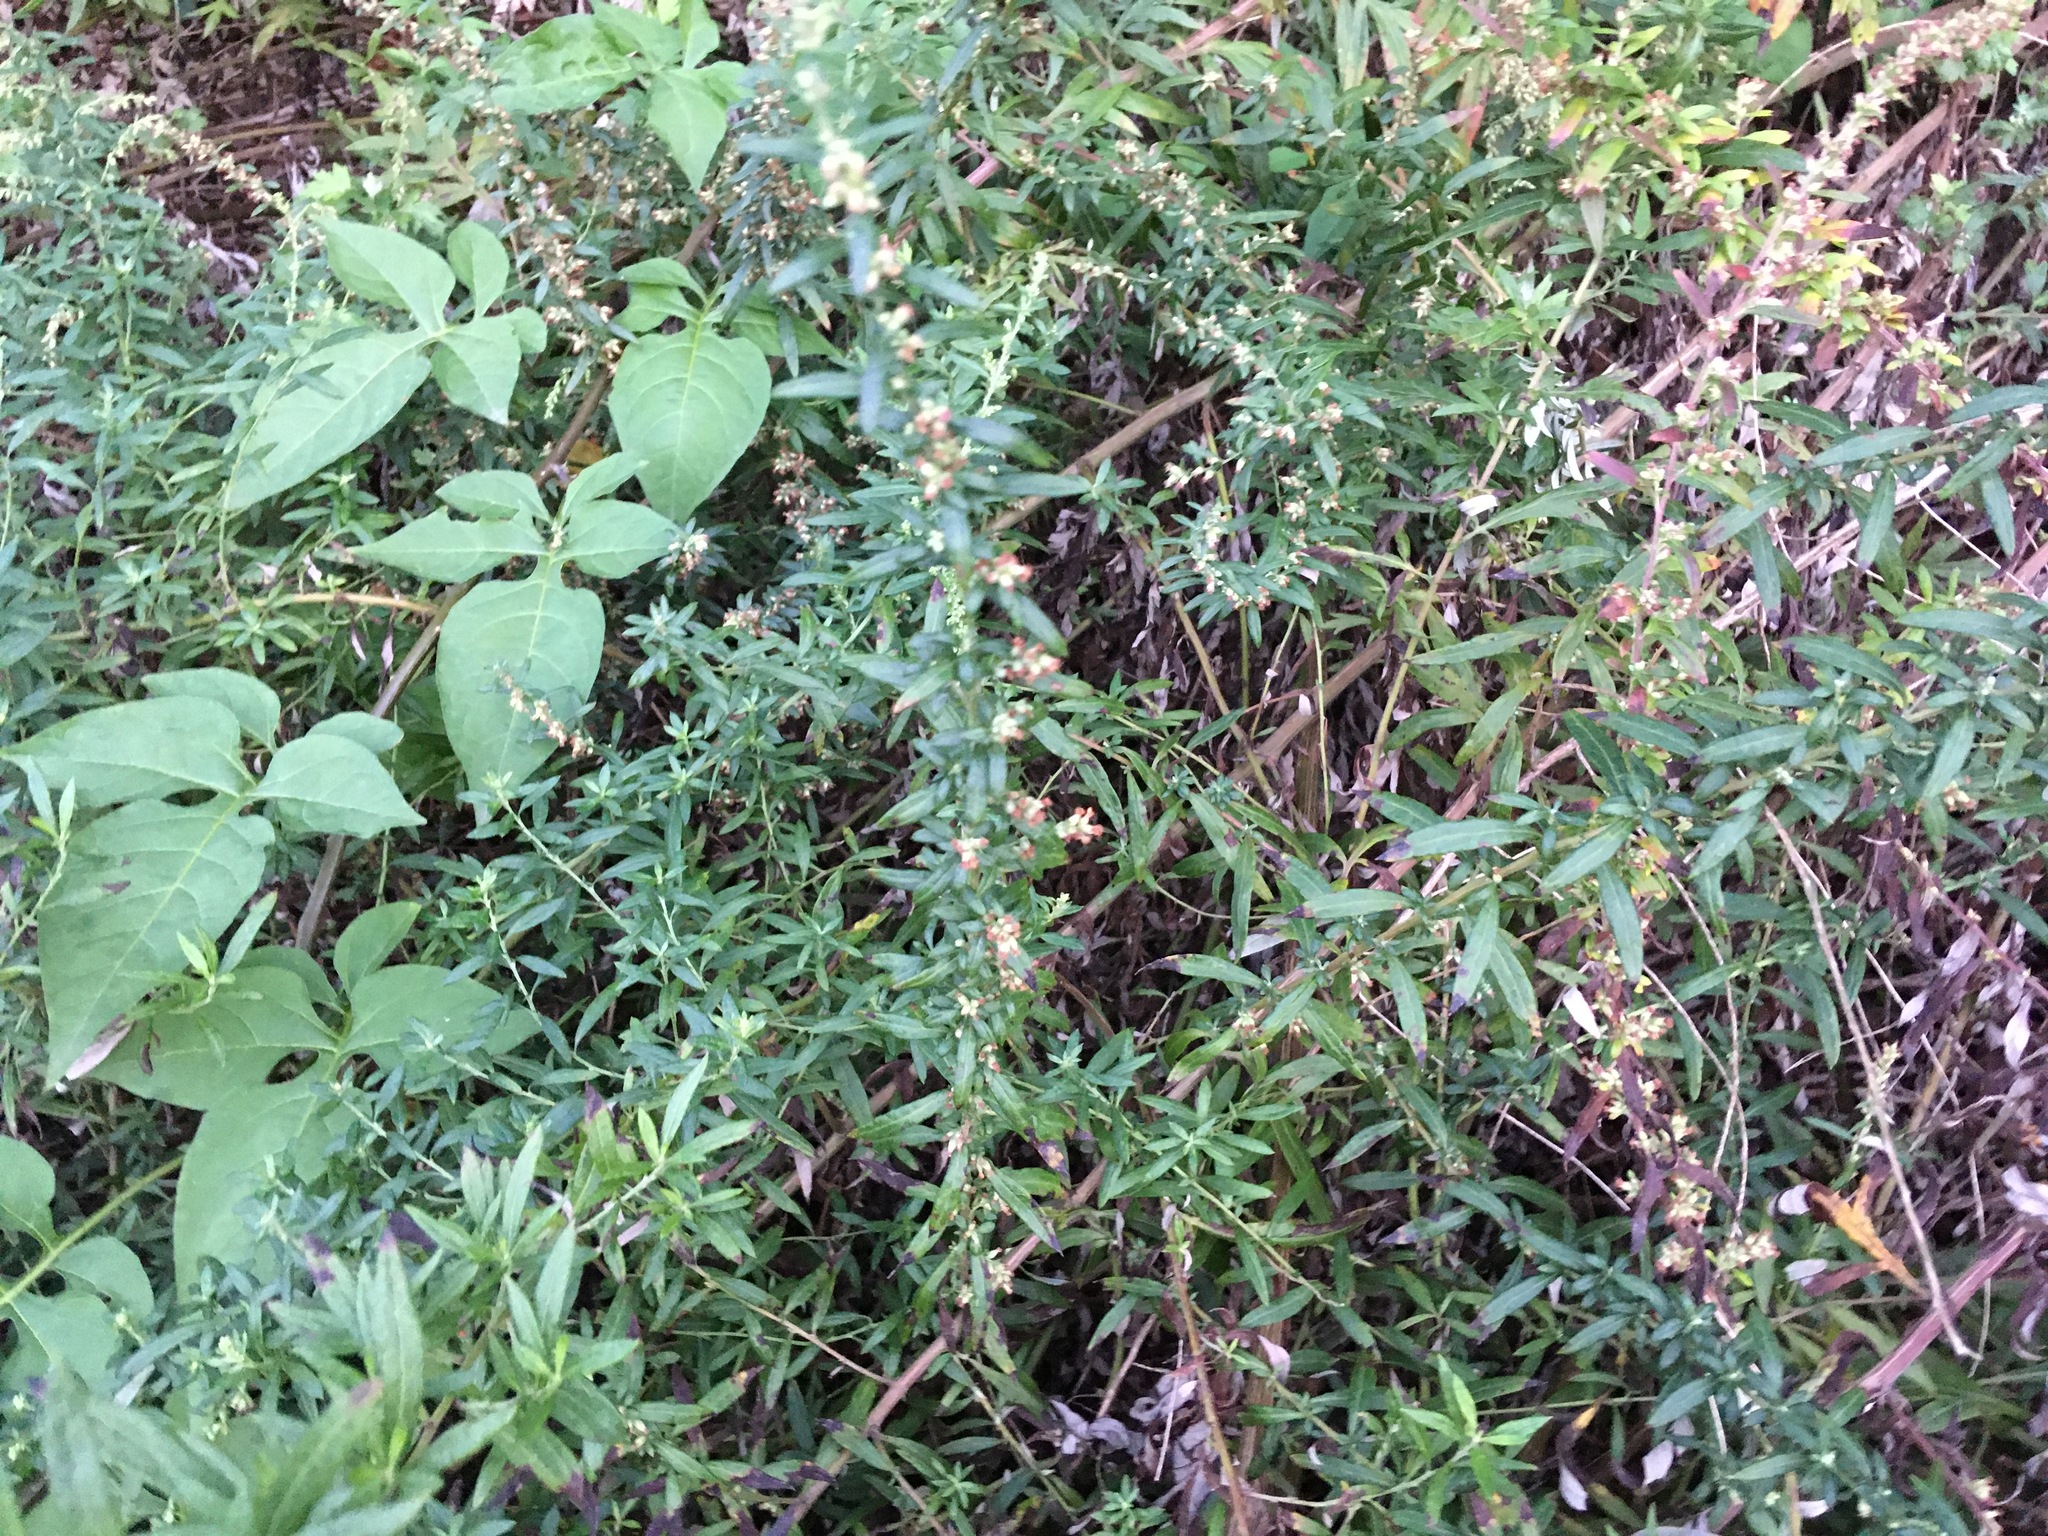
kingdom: Plantae
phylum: Tracheophyta
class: Magnoliopsida
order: Asterales
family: Asteraceae
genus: Artemisia
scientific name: Artemisia vulgaris
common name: Mugwort
